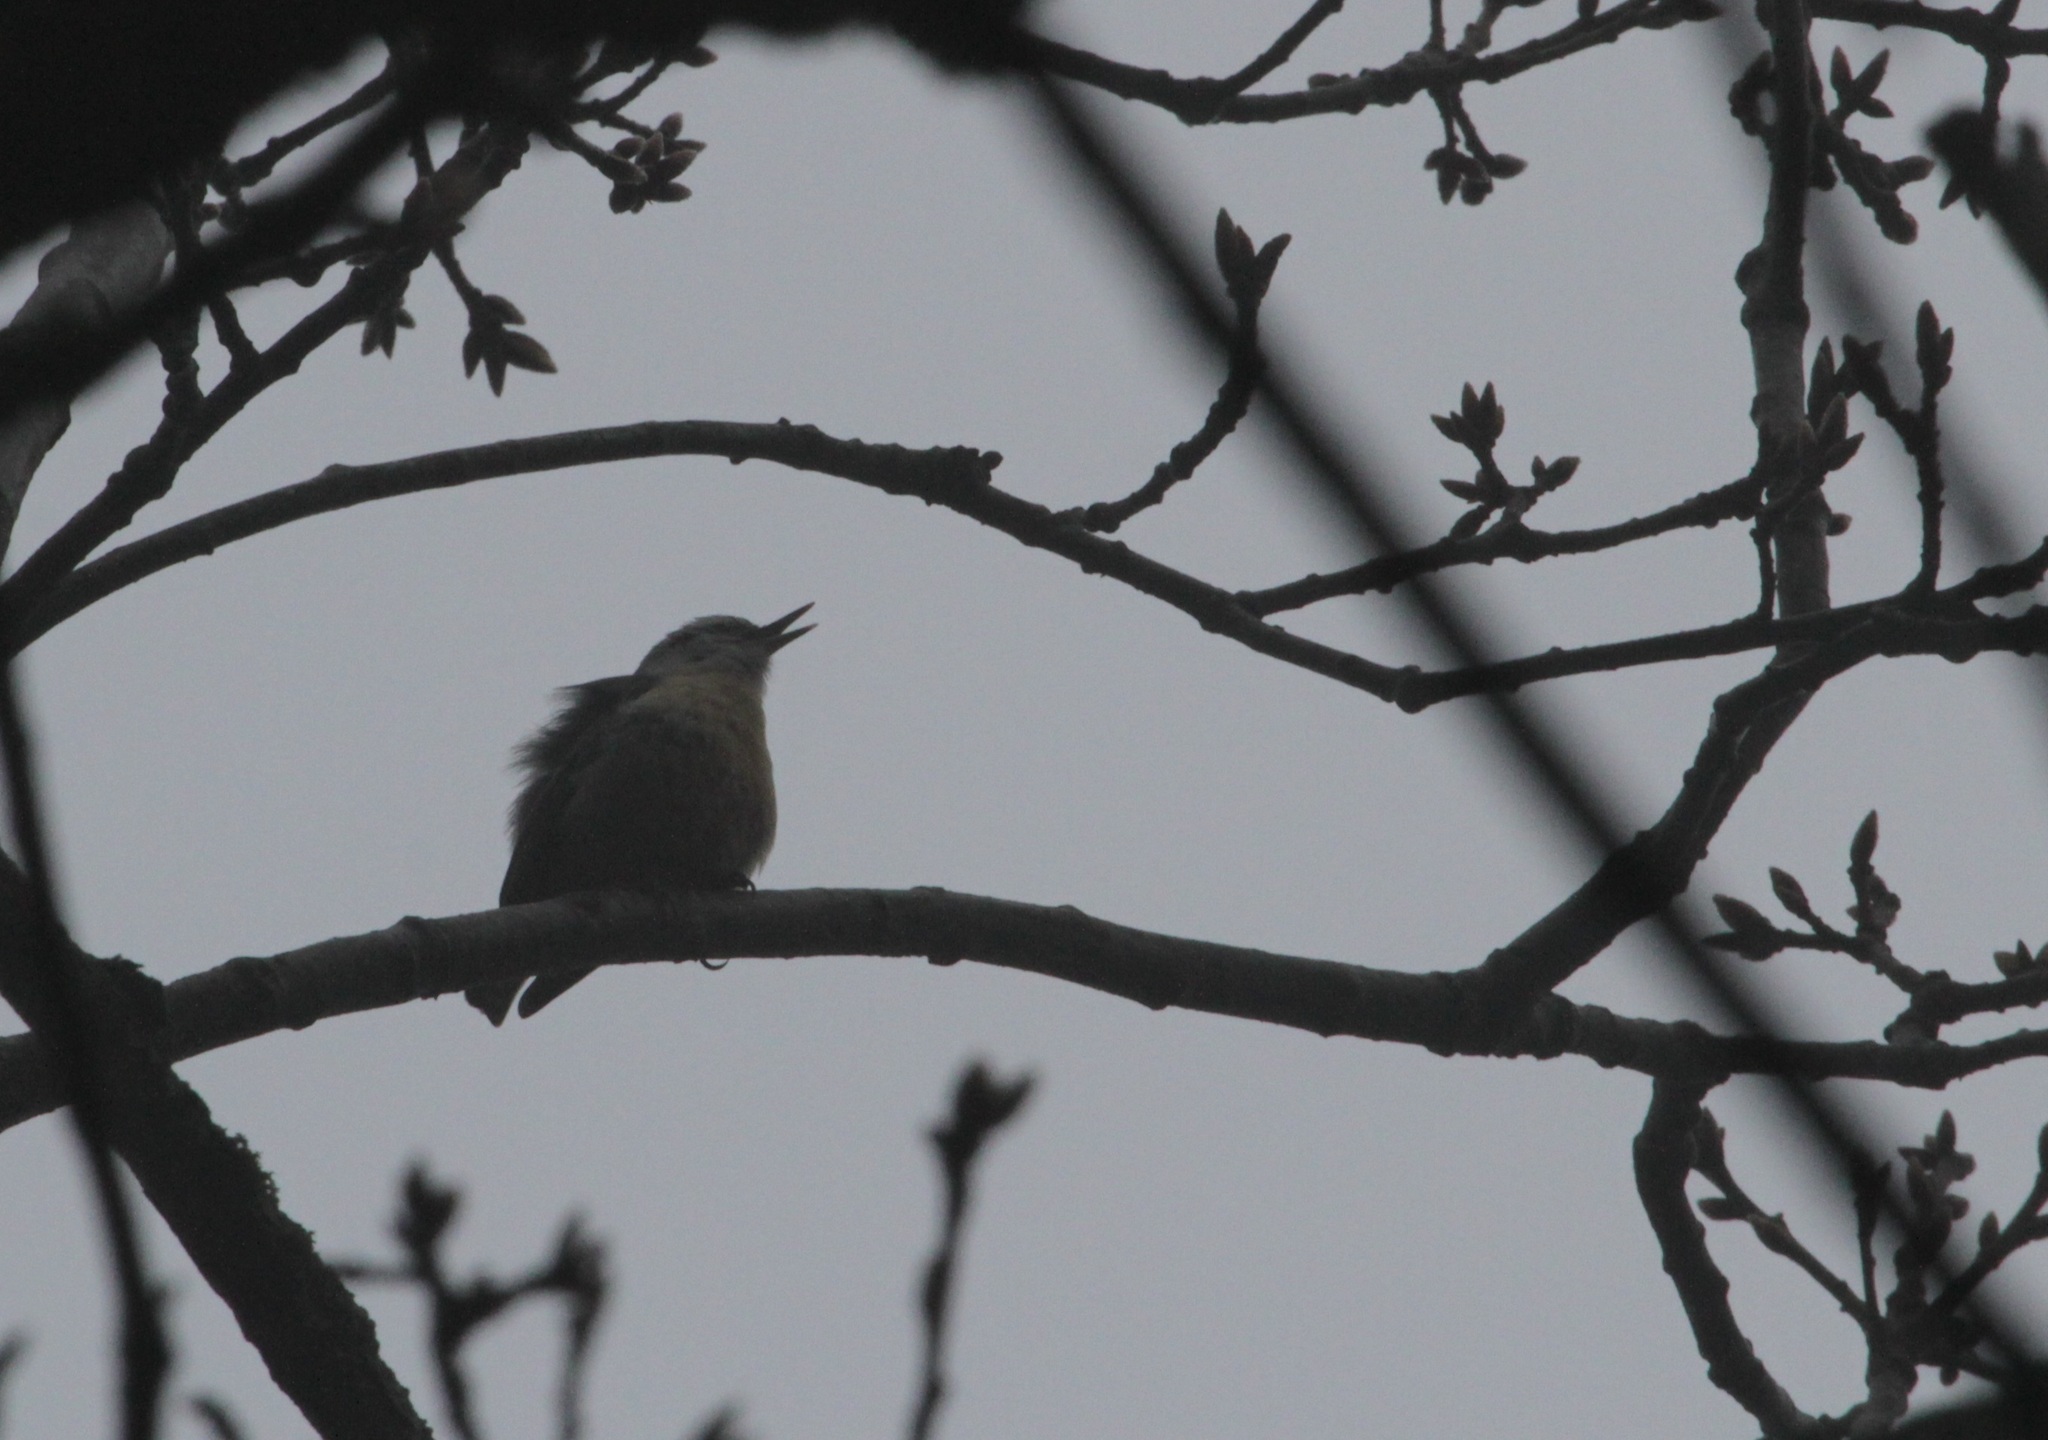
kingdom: Animalia
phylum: Chordata
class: Aves
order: Passeriformes
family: Sittidae
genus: Sitta
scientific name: Sitta ledanti
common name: Algerian nuthatch
